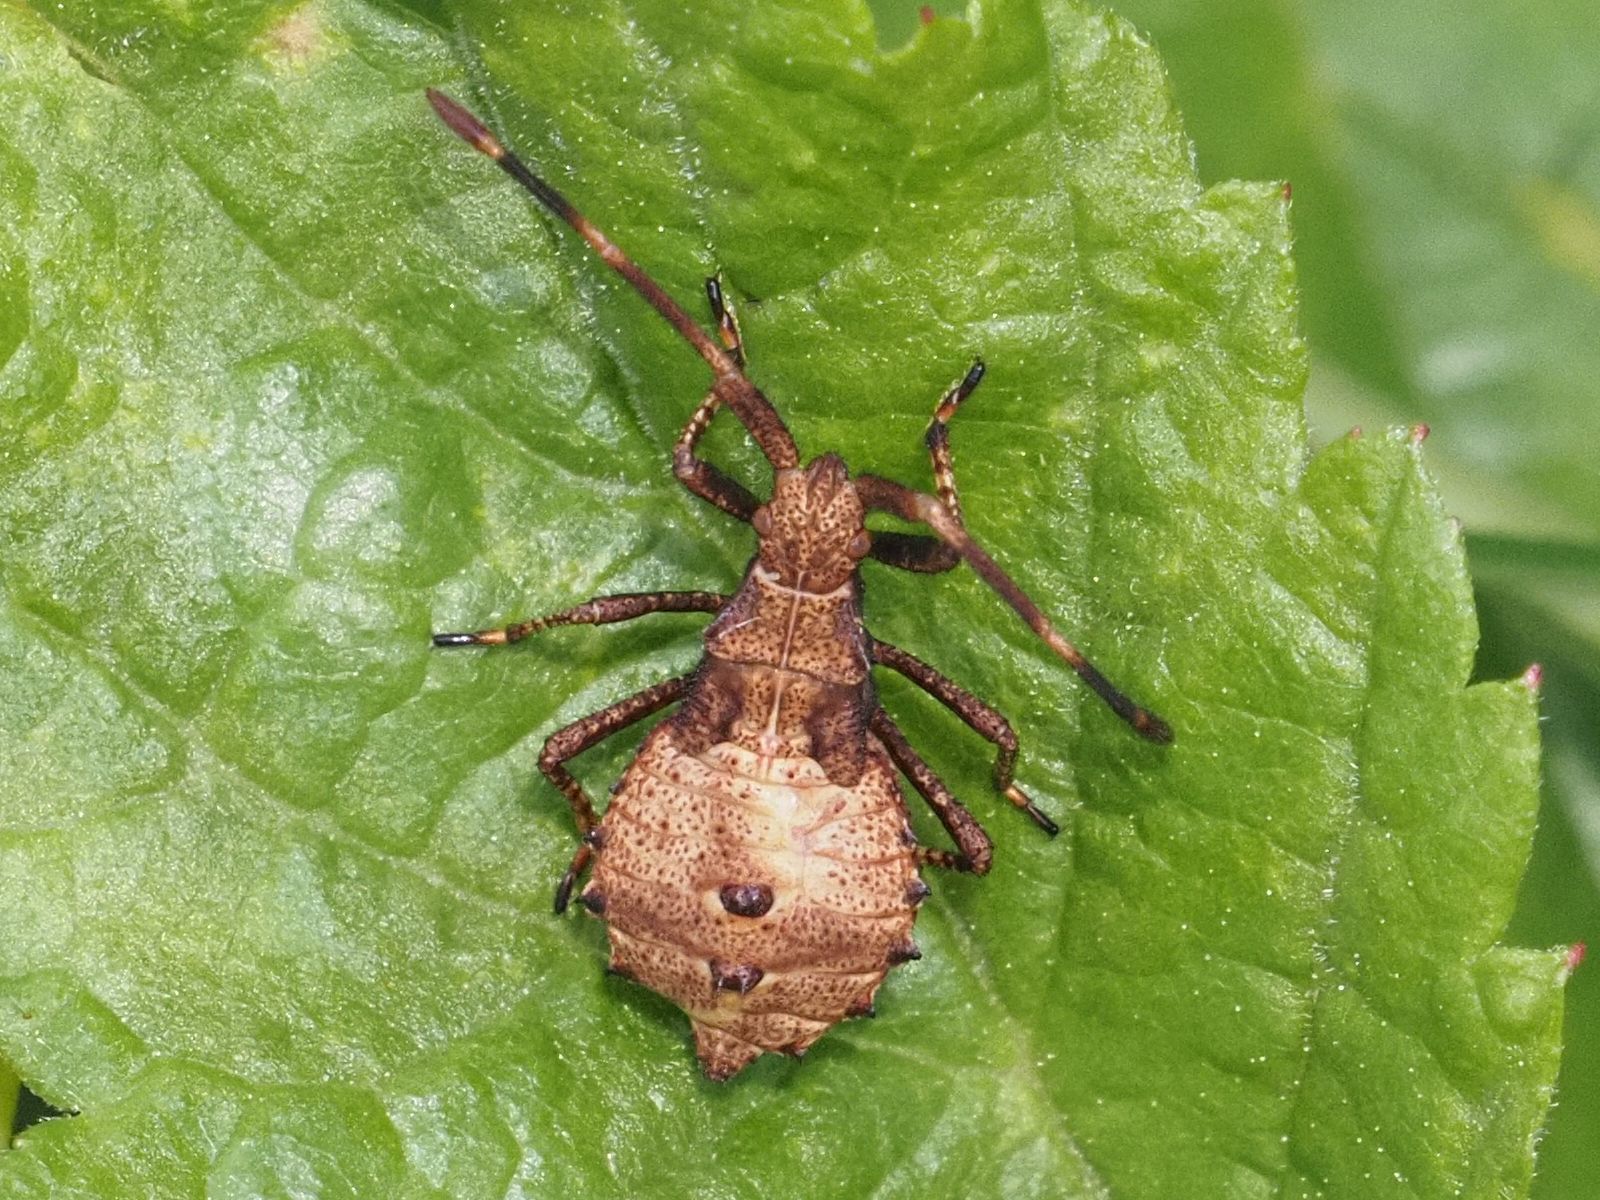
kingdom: Animalia
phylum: Arthropoda
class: Insecta
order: Hemiptera
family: Coreidae
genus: Coreus
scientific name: Coreus marginatus
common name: Dock bug
